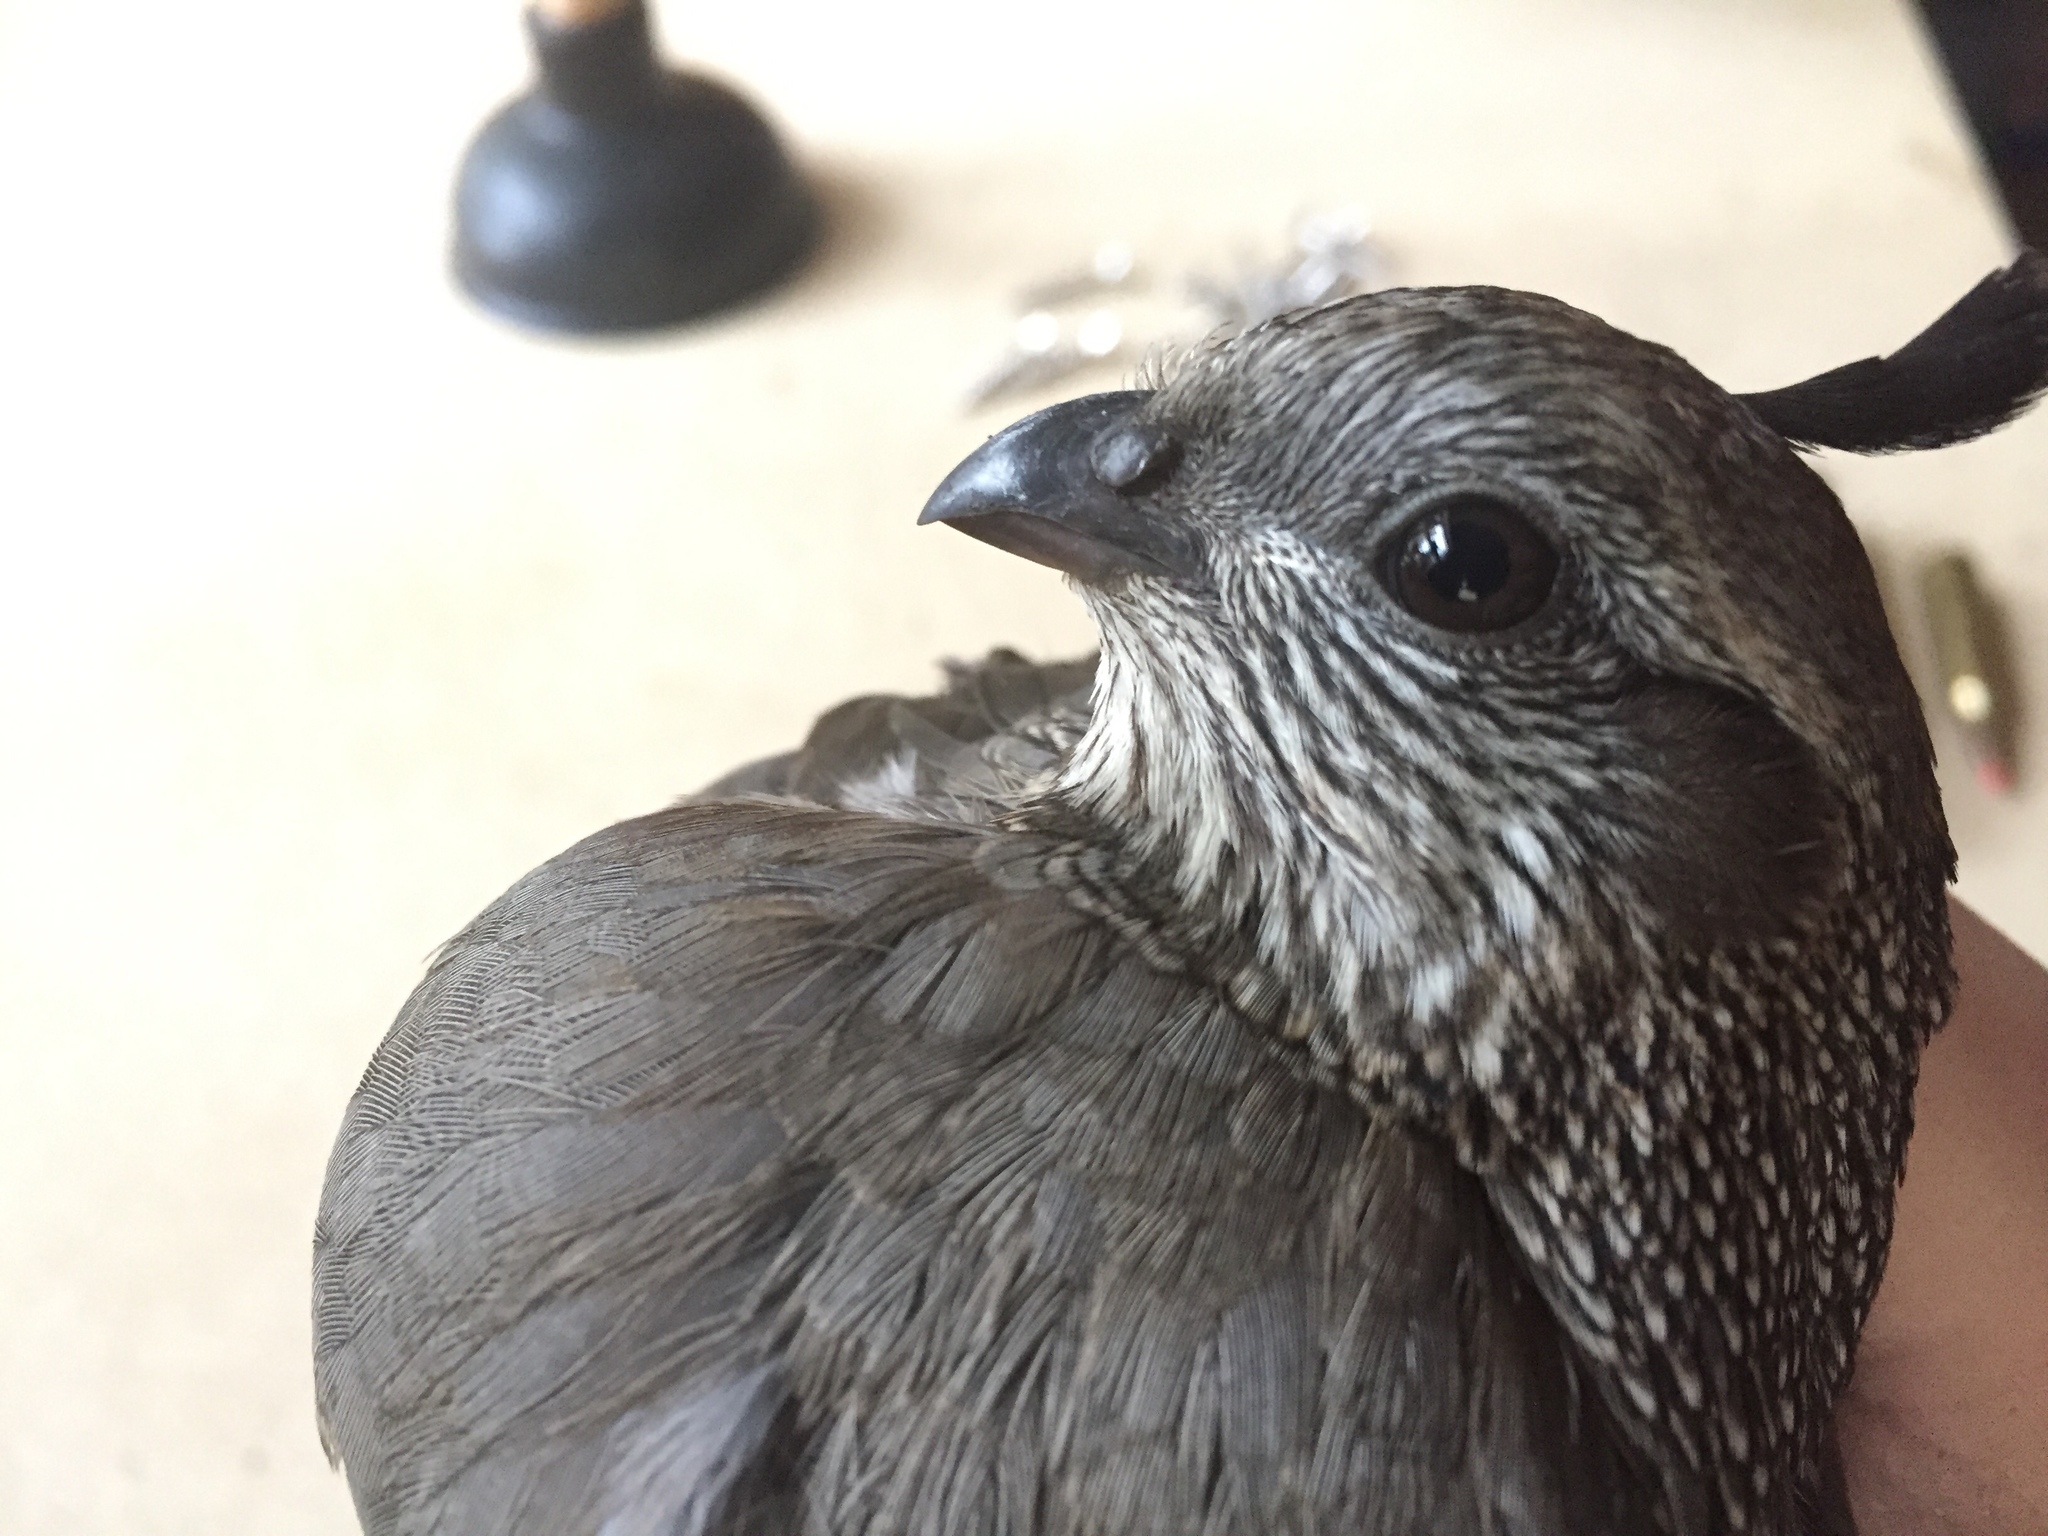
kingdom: Animalia
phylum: Chordata
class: Aves
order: Galliformes
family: Odontophoridae
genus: Callipepla
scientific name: Callipepla californica
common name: California quail
